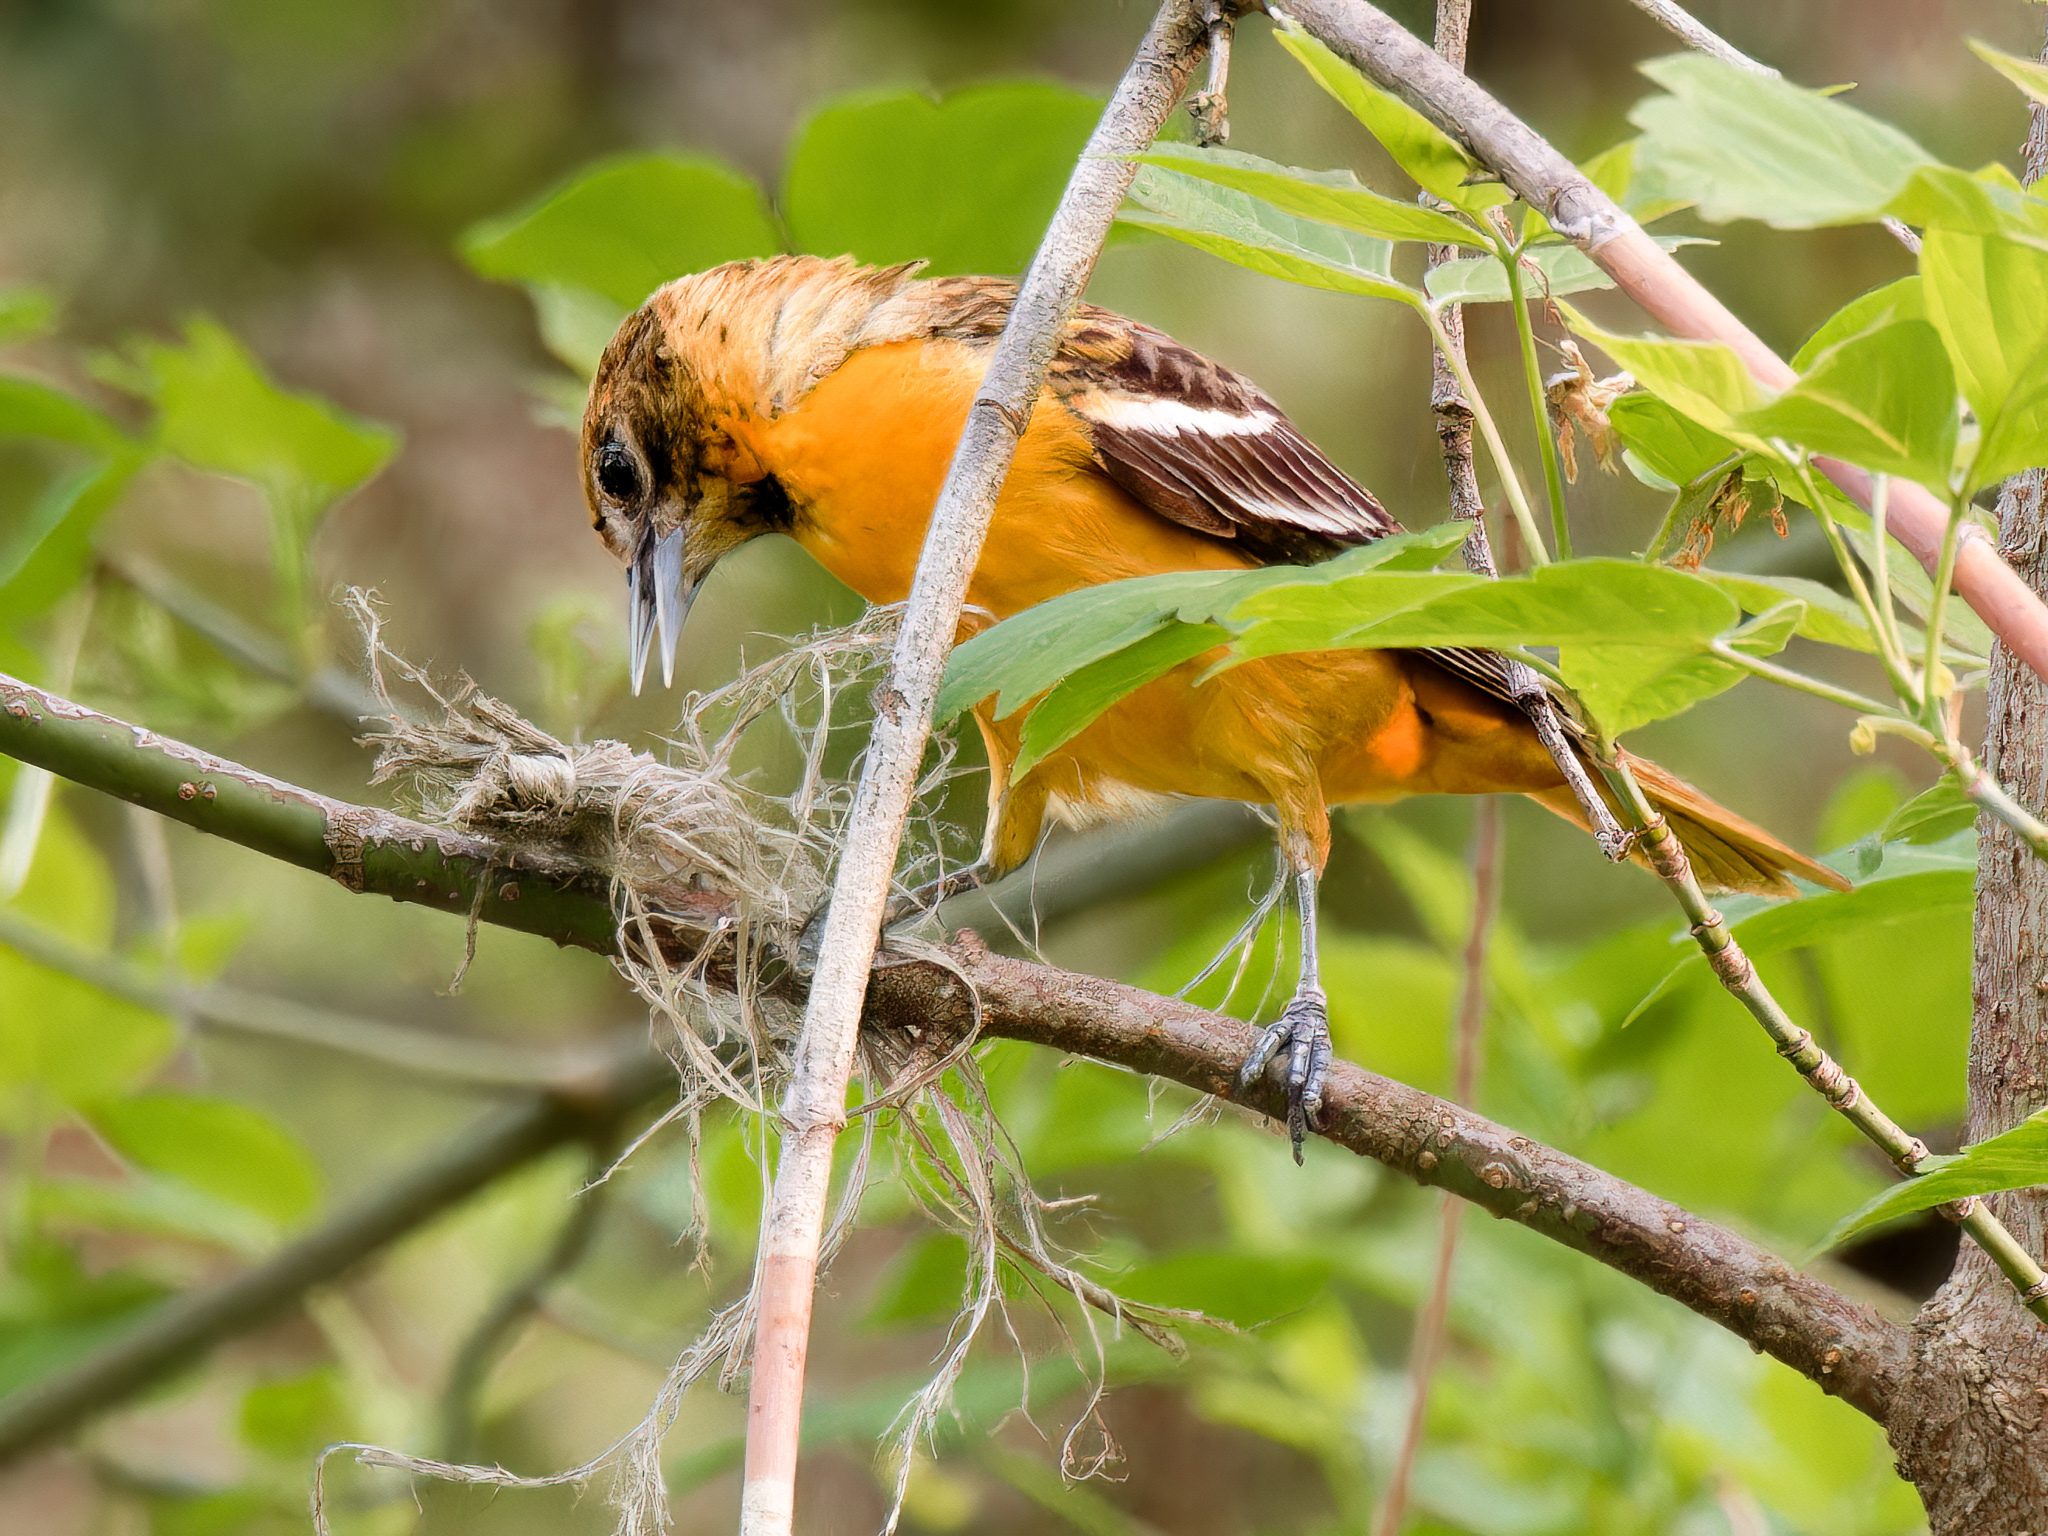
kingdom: Animalia
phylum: Chordata
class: Aves
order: Passeriformes
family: Icteridae
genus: Icterus
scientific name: Icterus galbula
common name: Baltimore oriole
